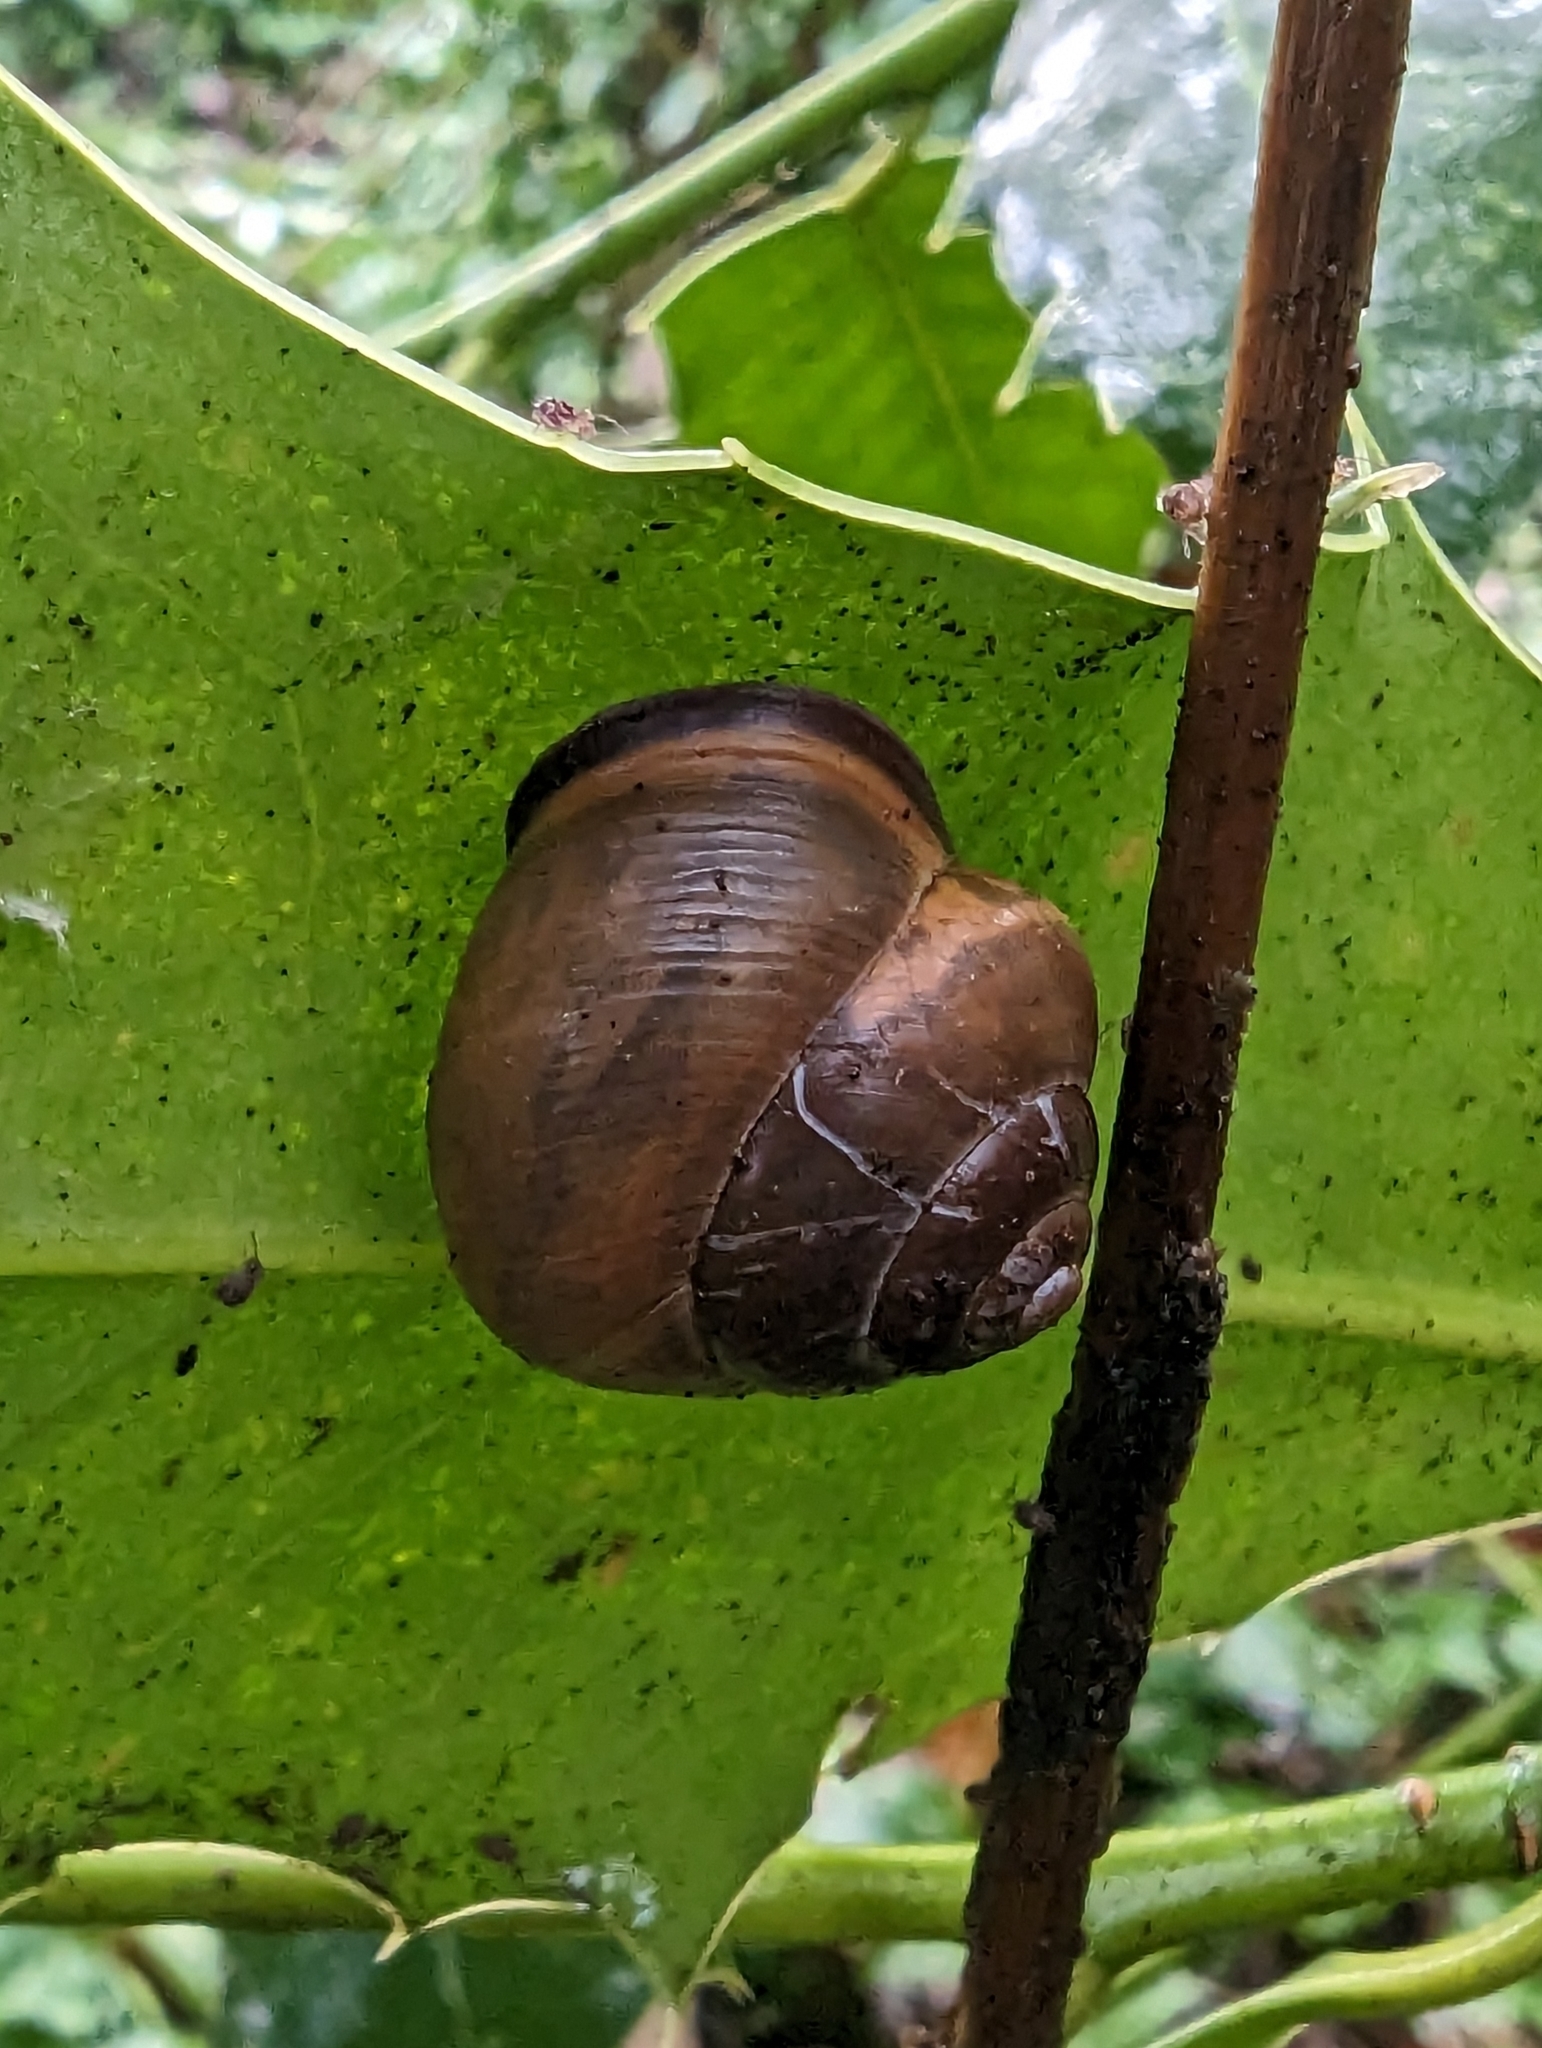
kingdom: Animalia
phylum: Mollusca
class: Gastropoda
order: Stylommatophora
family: Helicidae
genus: Cepaea
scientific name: Cepaea nemoralis
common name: Grovesnail
